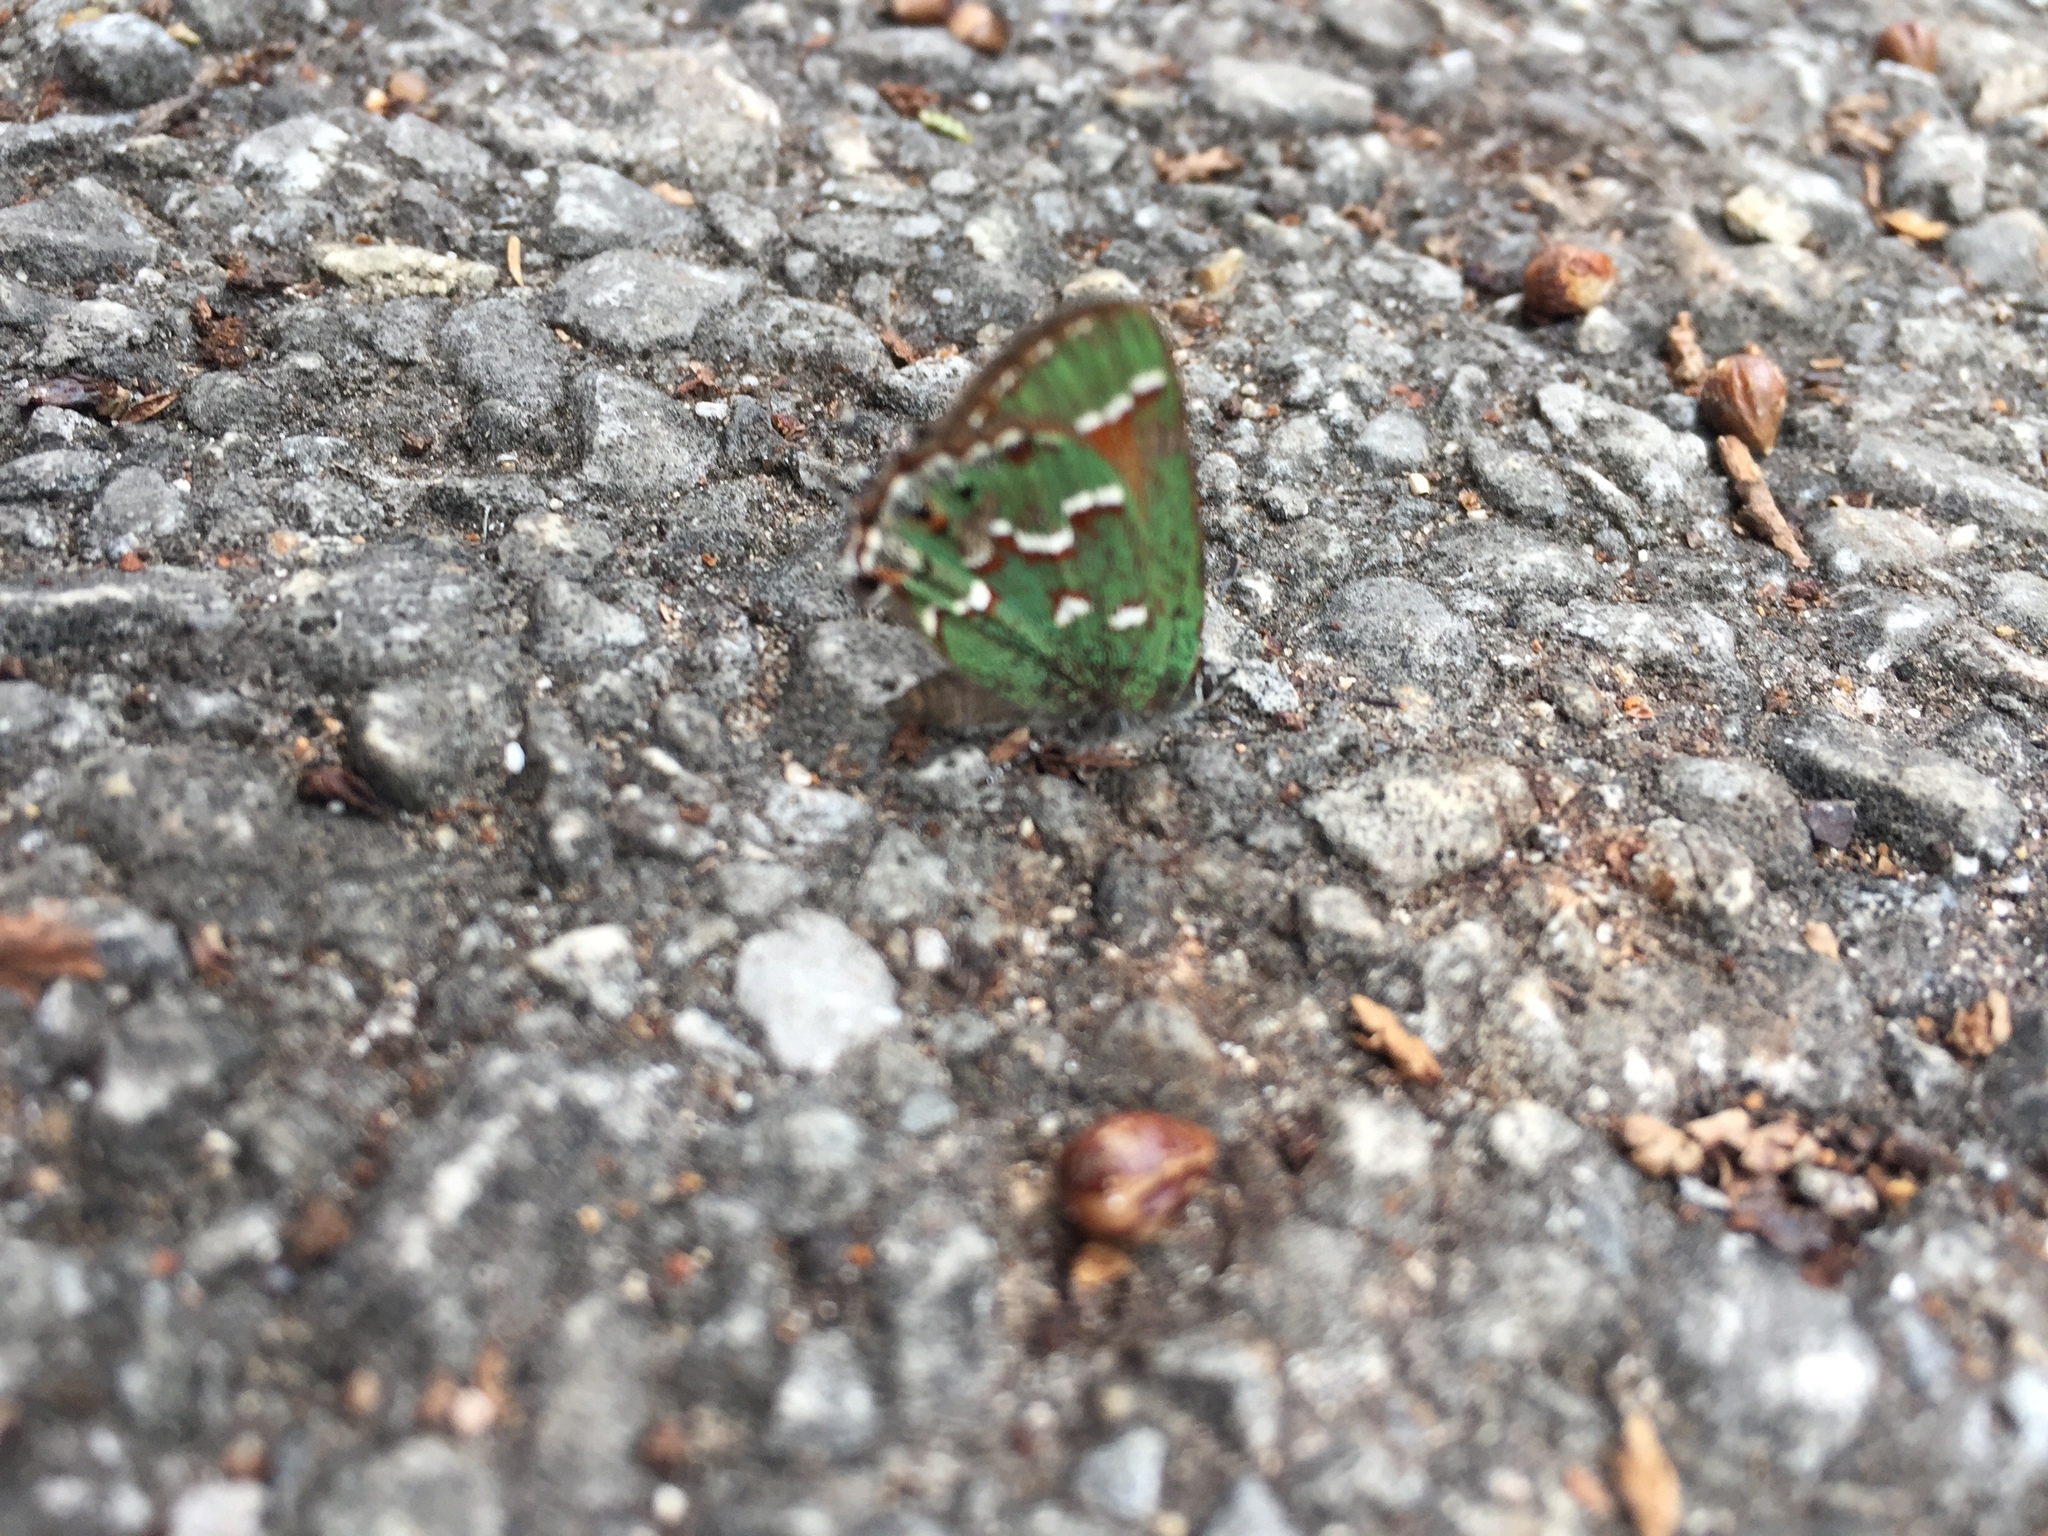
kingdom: Animalia
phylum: Arthropoda
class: Insecta
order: Lepidoptera
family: Lycaenidae
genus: Mitoura
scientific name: Mitoura gryneus
